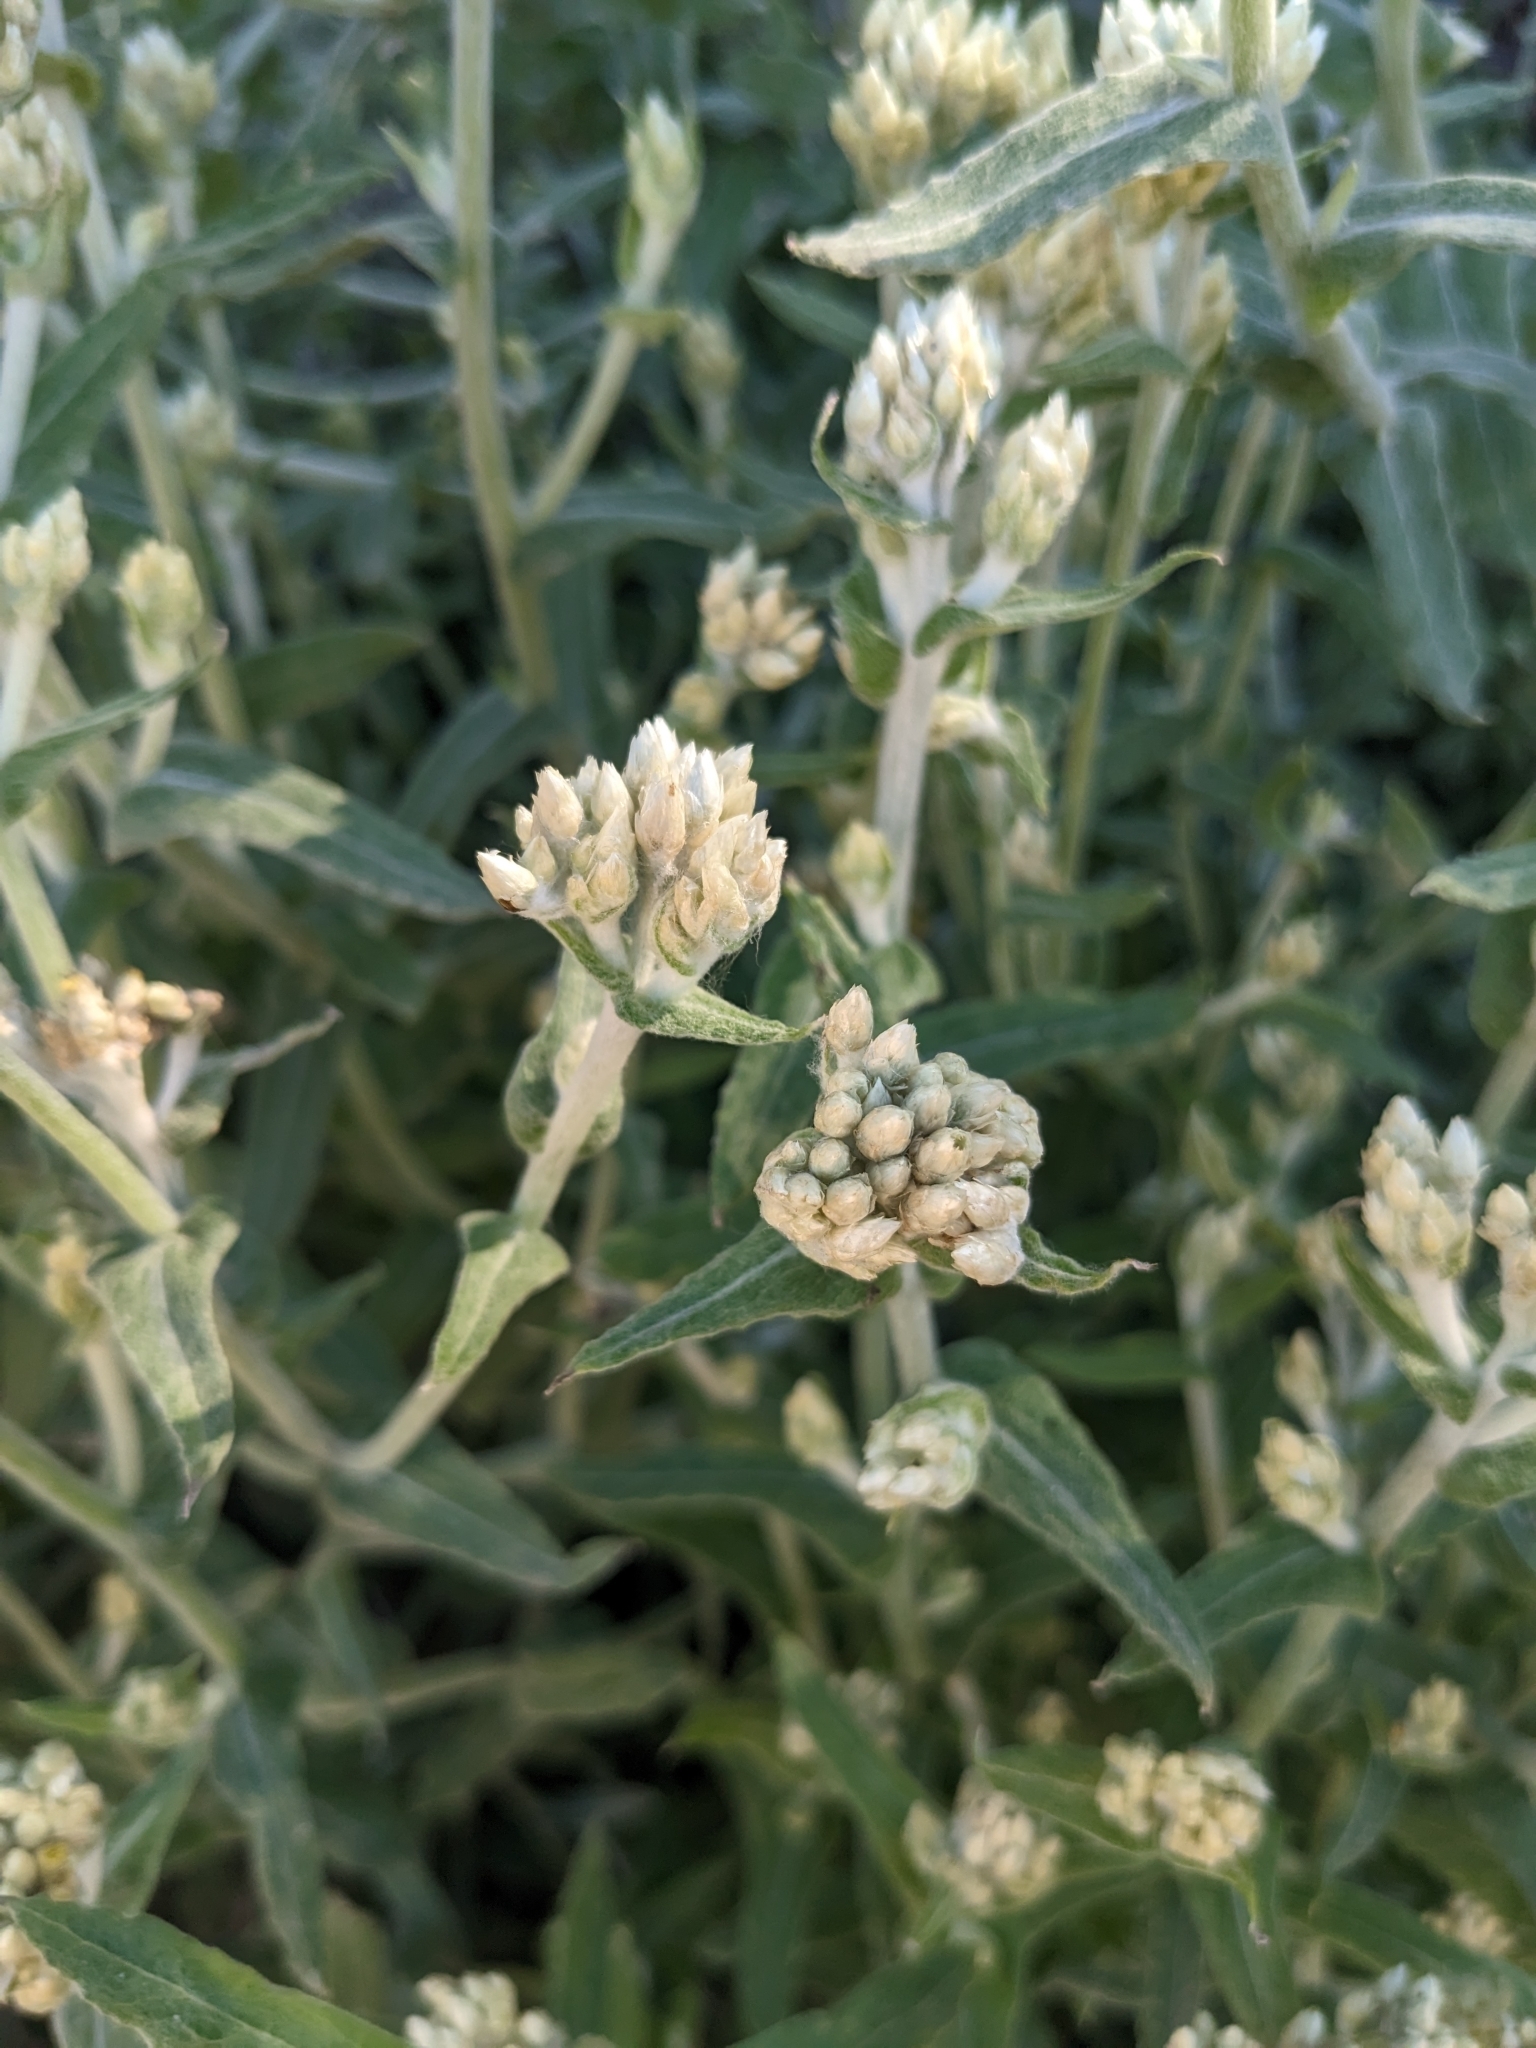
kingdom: Plantae
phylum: Tracheophyta
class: Magnoliopsida
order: Asterales
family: Asteraceae
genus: Pseudognaphalium
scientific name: Pseudognaphalium biolettii
